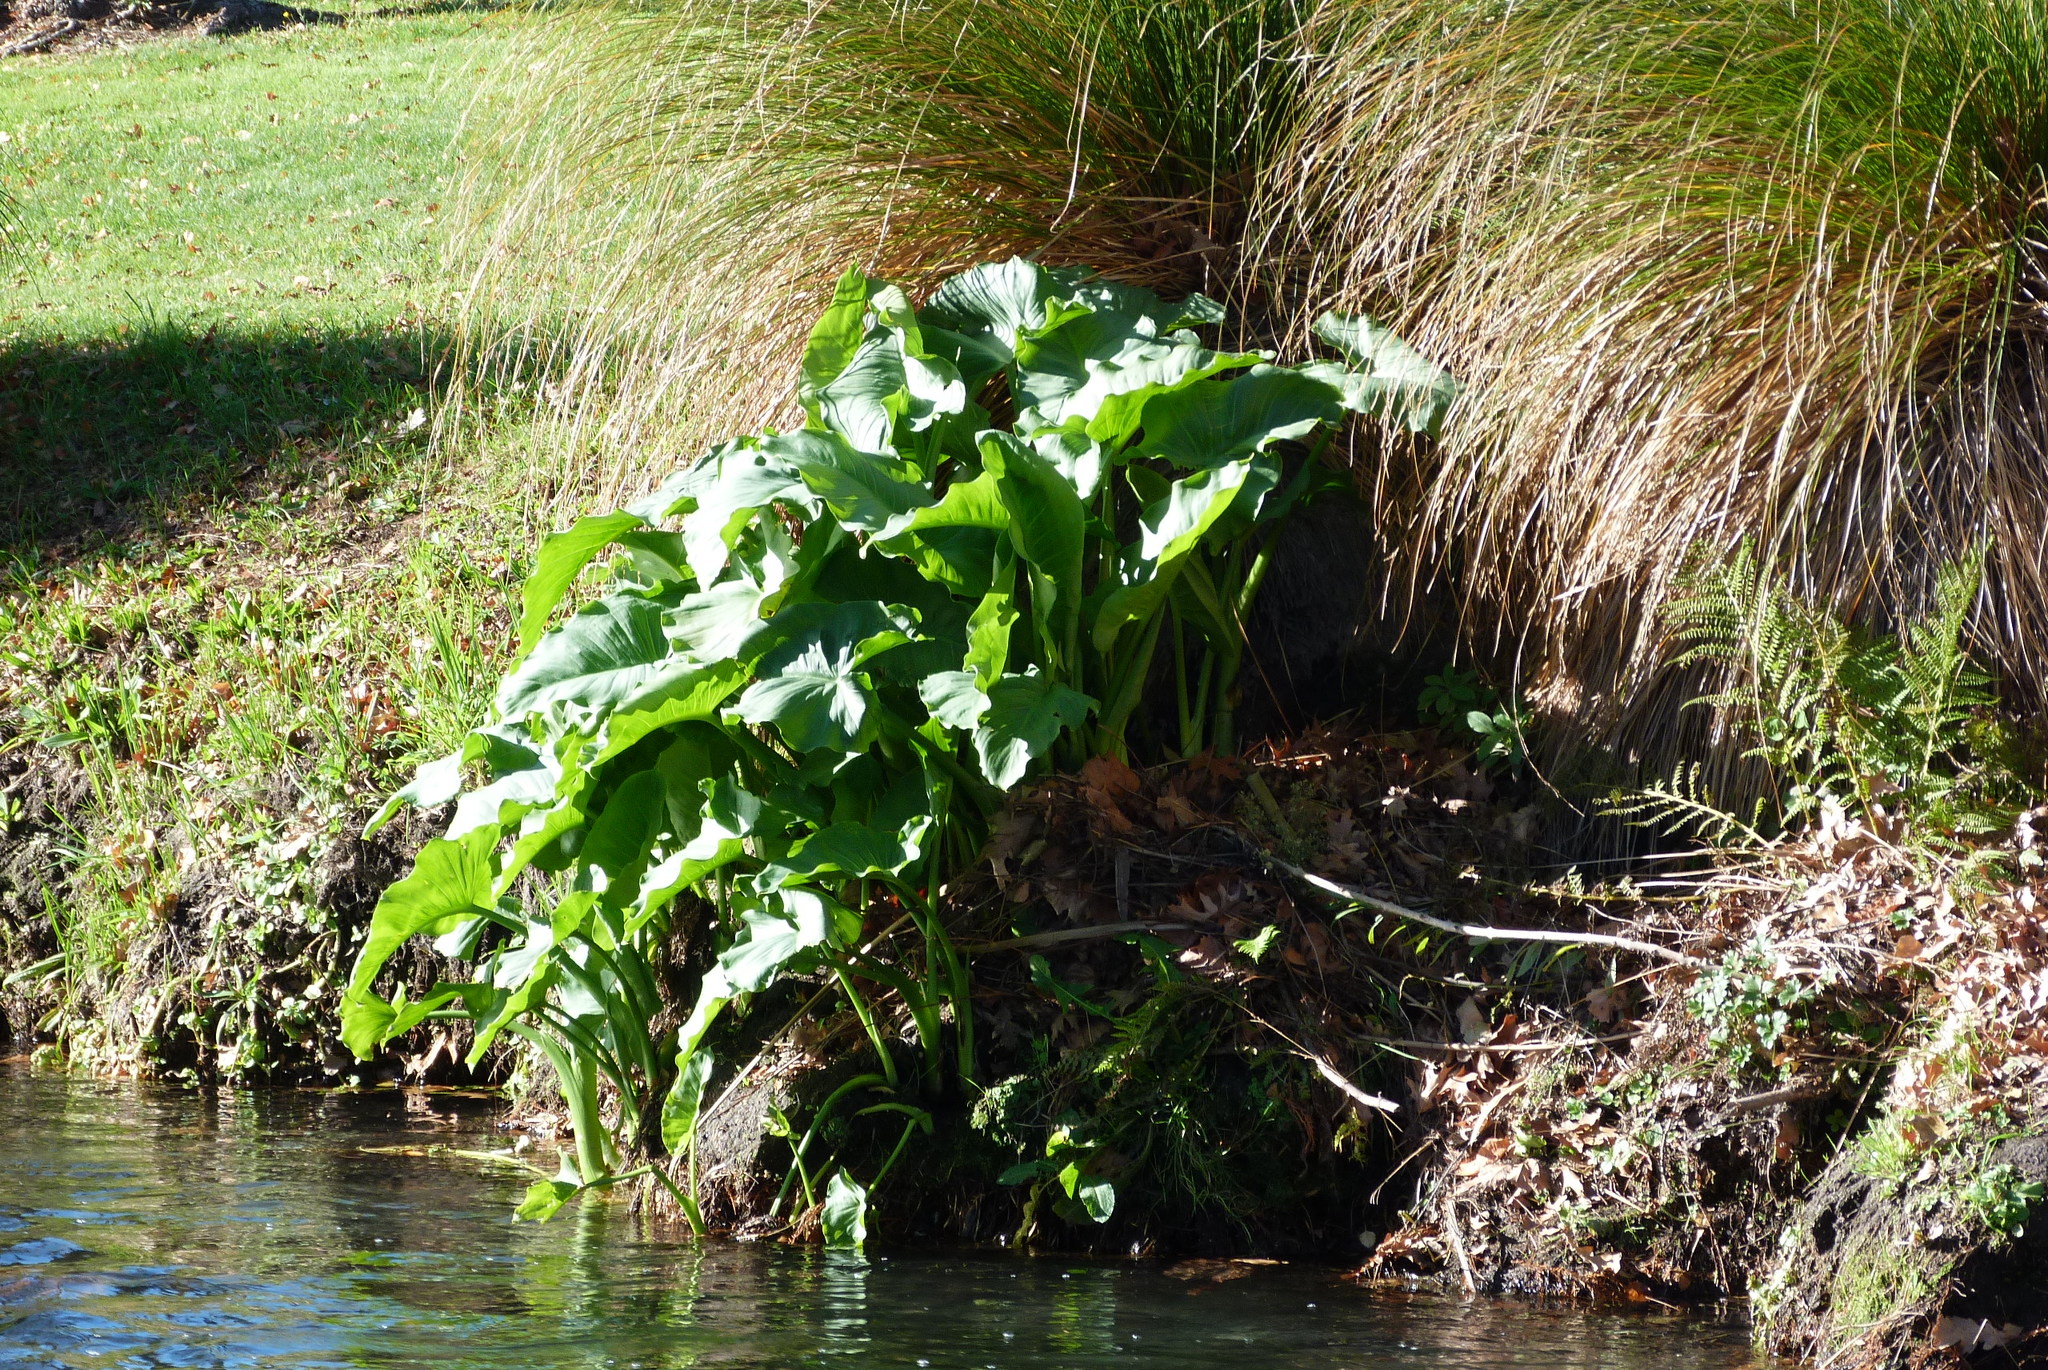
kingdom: Plantae
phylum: Tracheophyta
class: Liliopsida
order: Alismatales
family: Araceae
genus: Zantedeschia
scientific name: Zantedeschia aethiopica
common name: Altar-lily
